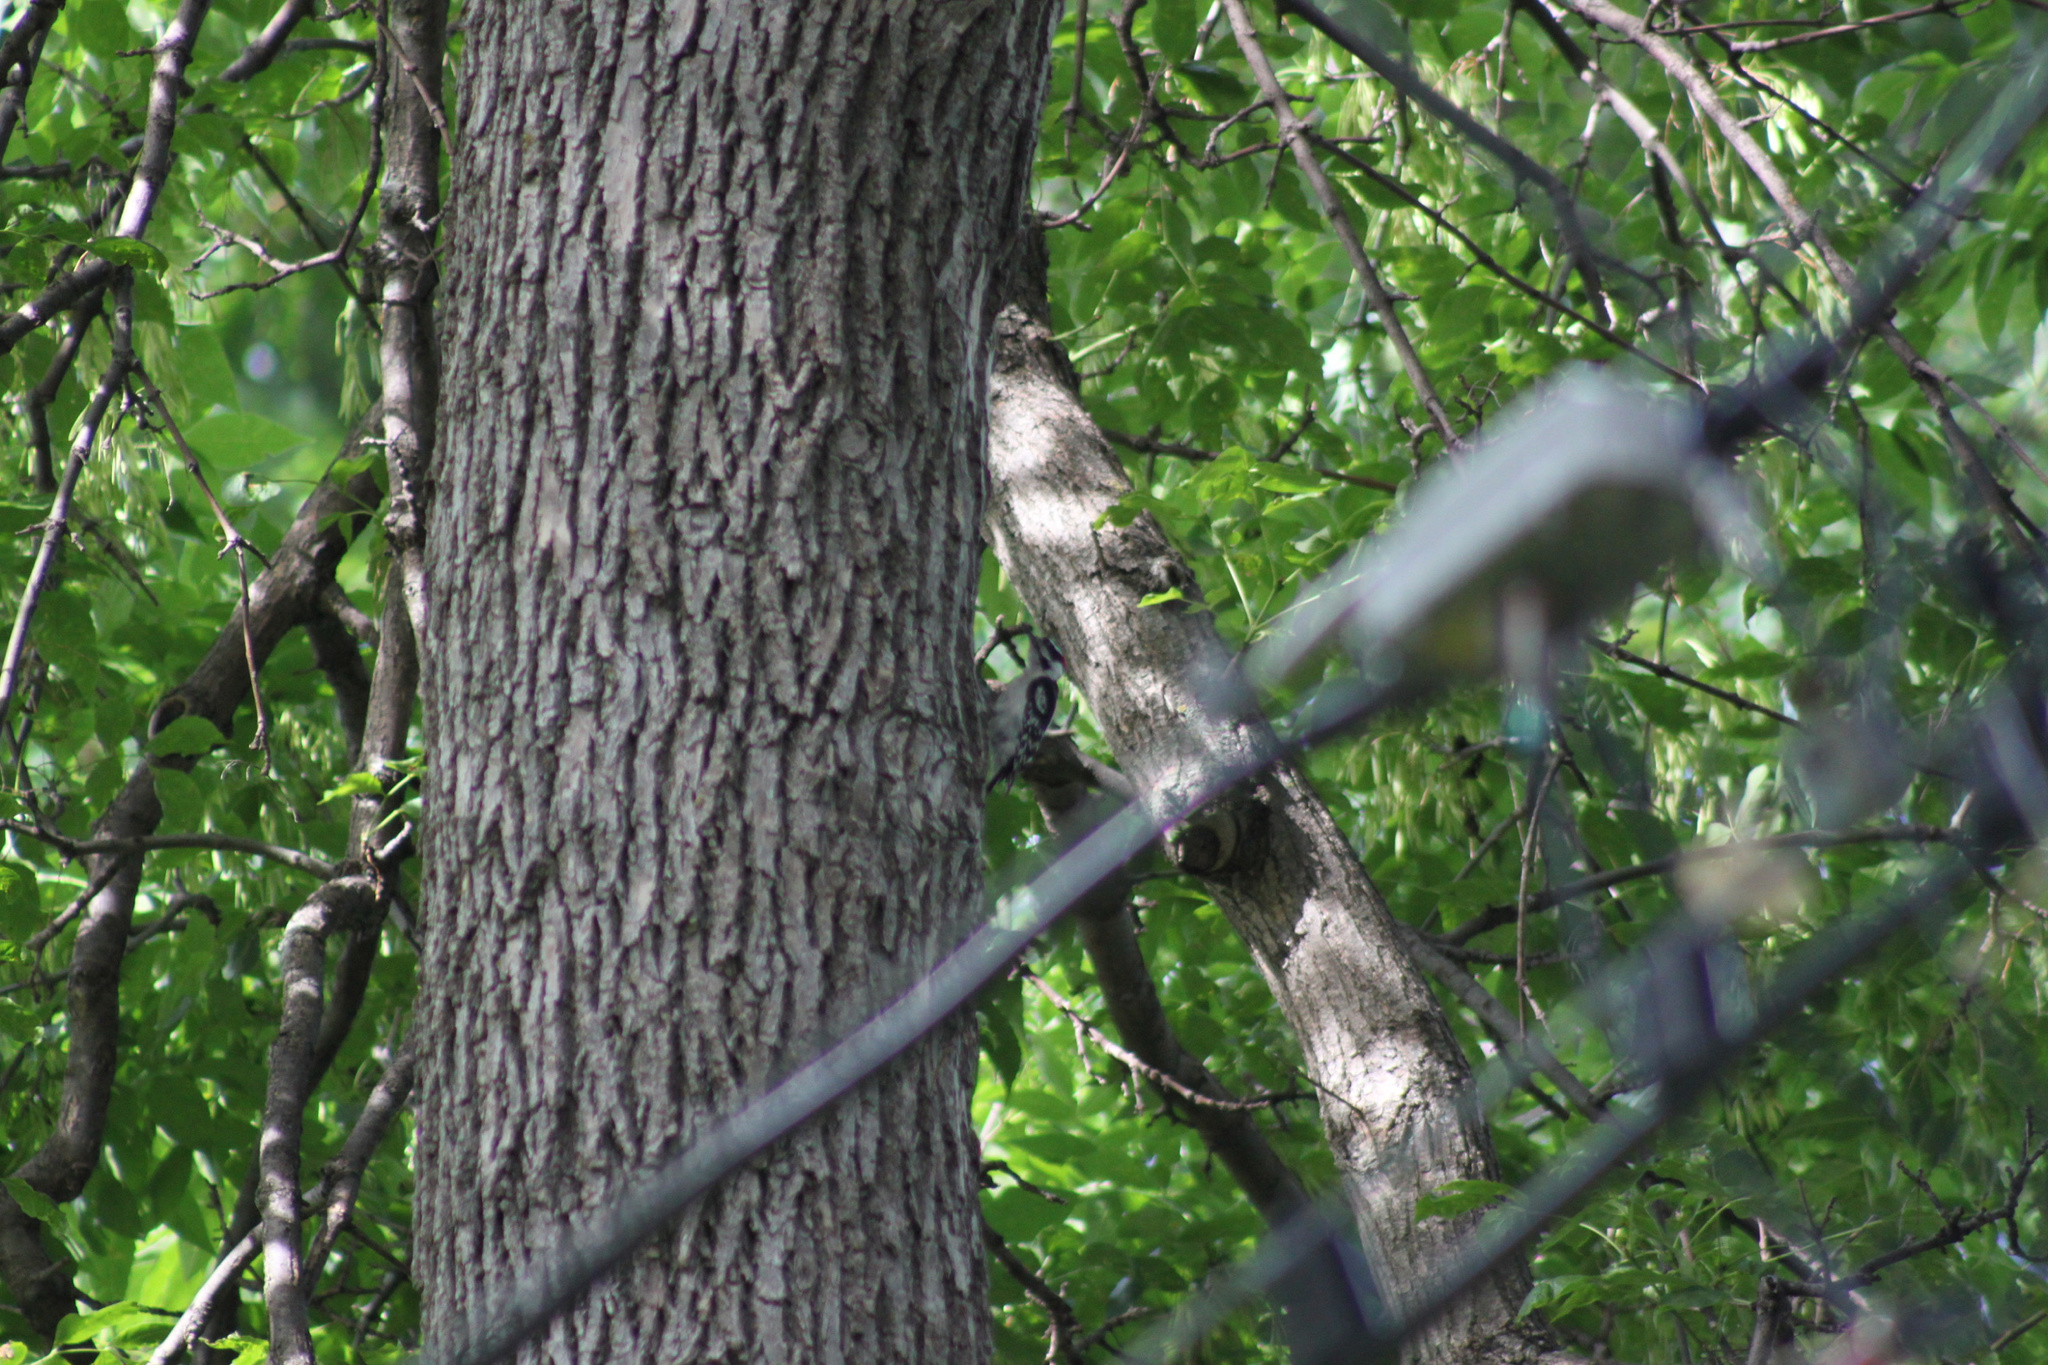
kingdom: Animalia
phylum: Chordata
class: Aves
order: Piciformes
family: Picidae
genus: Leuconotopicus
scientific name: Leuconotopicus villosus
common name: Hairy woodpecker
